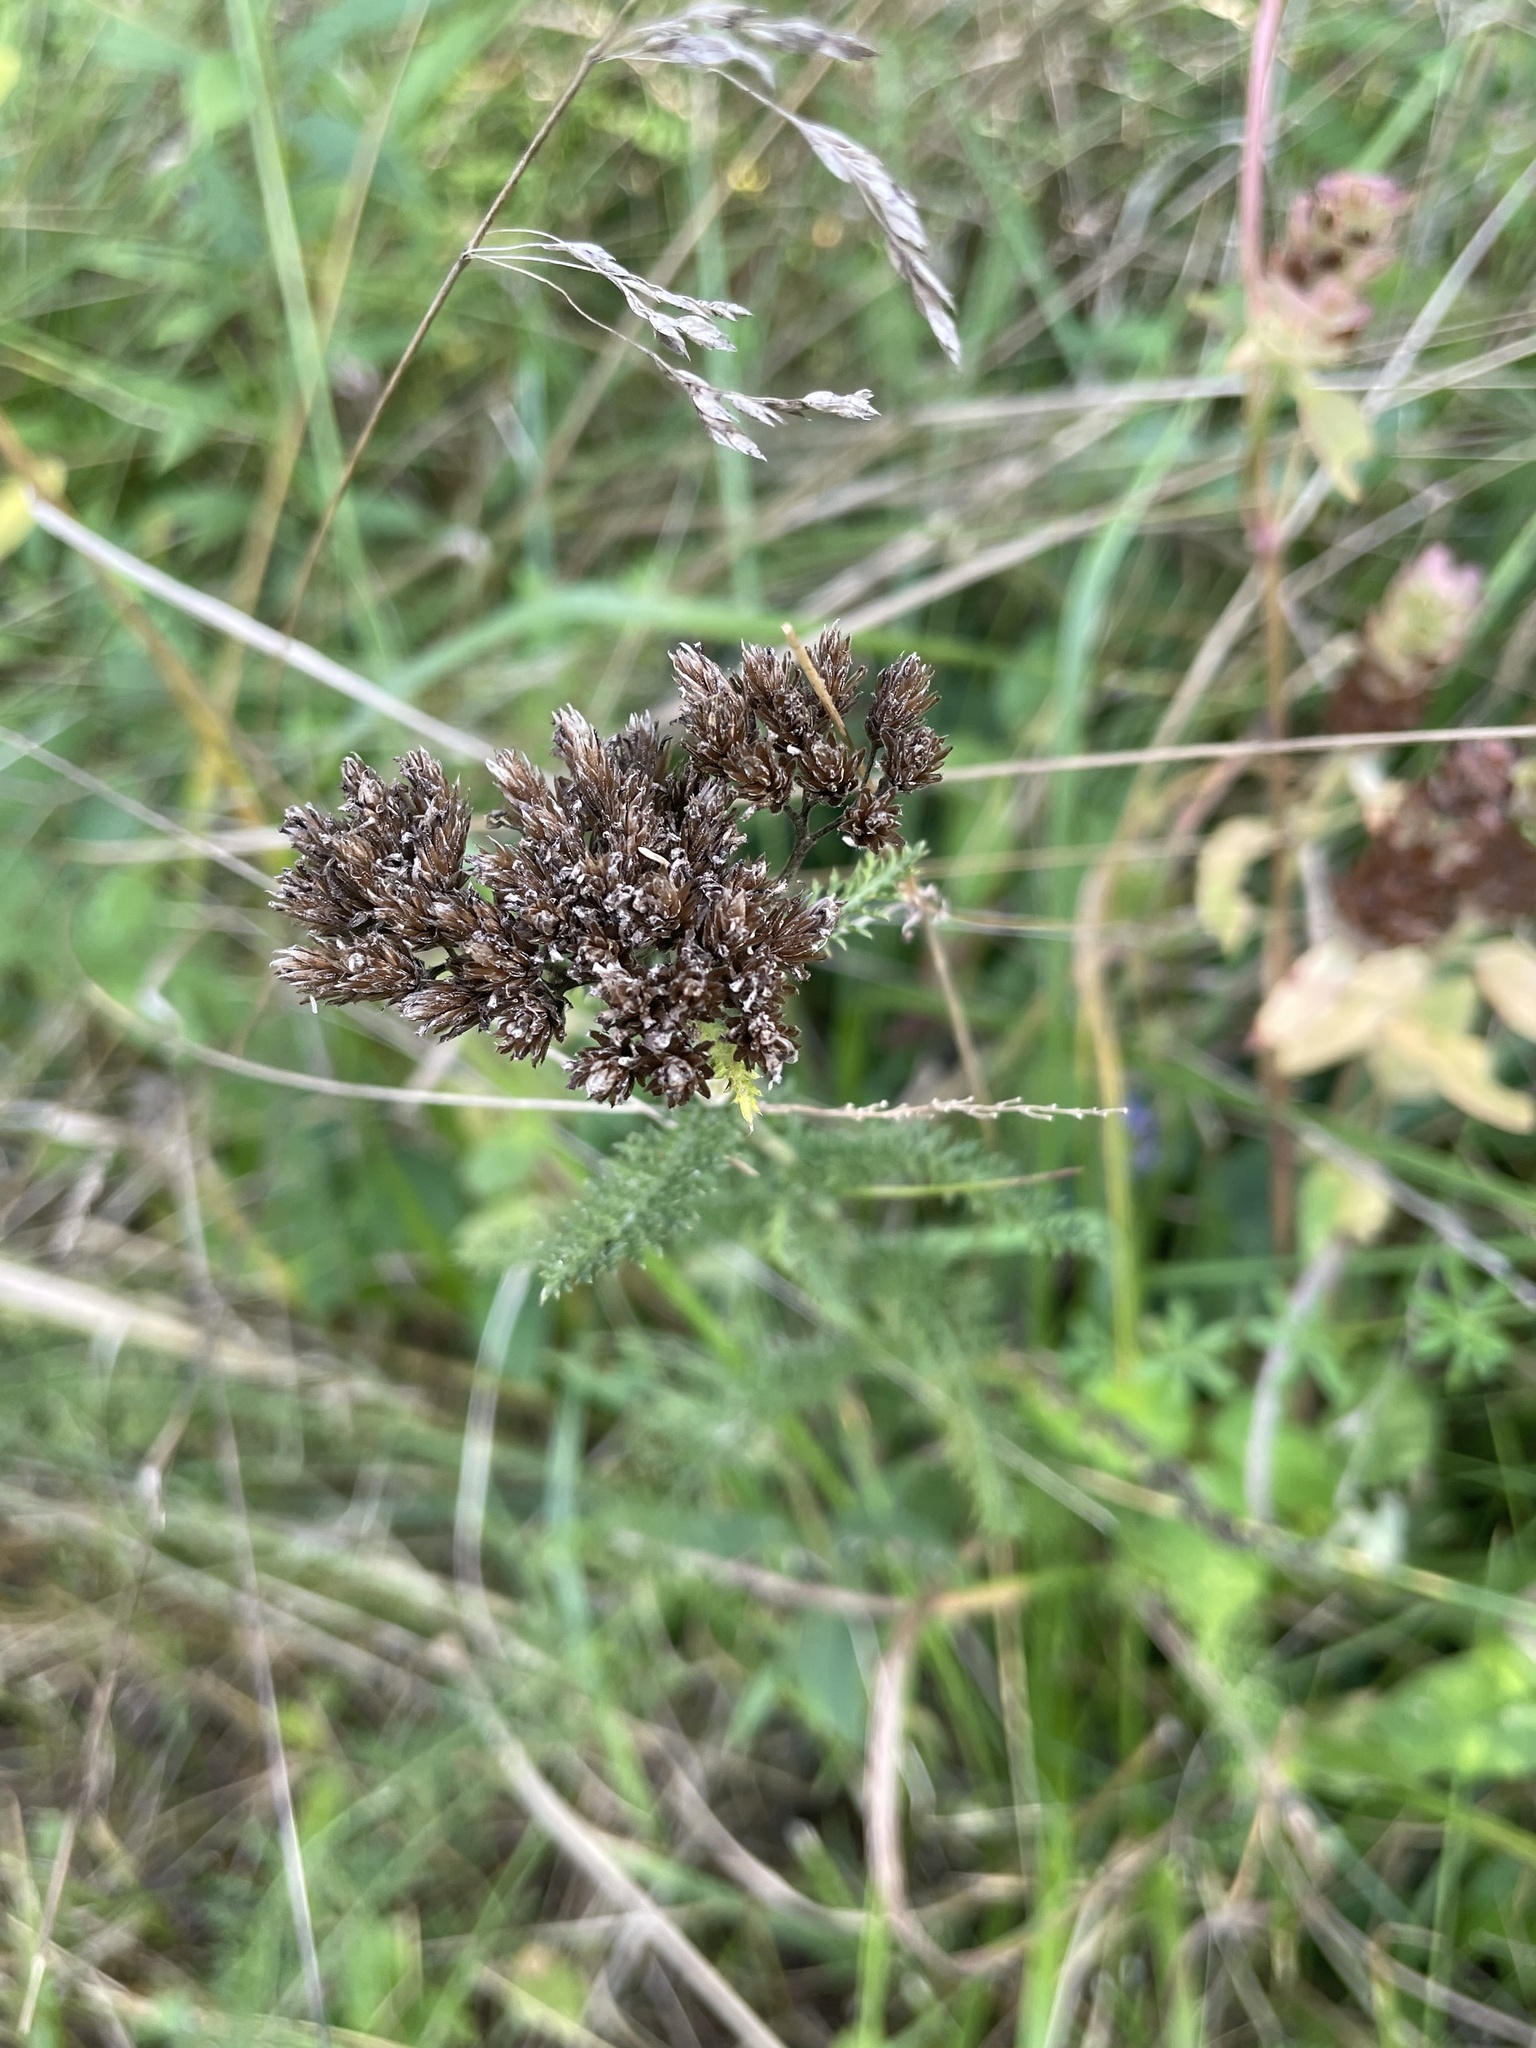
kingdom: Plantae
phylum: Tracheophyta
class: Magnoliopsida
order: Asterales
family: Asteraceae
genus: Achillea
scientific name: Achillea millefolium
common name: Yarrow
